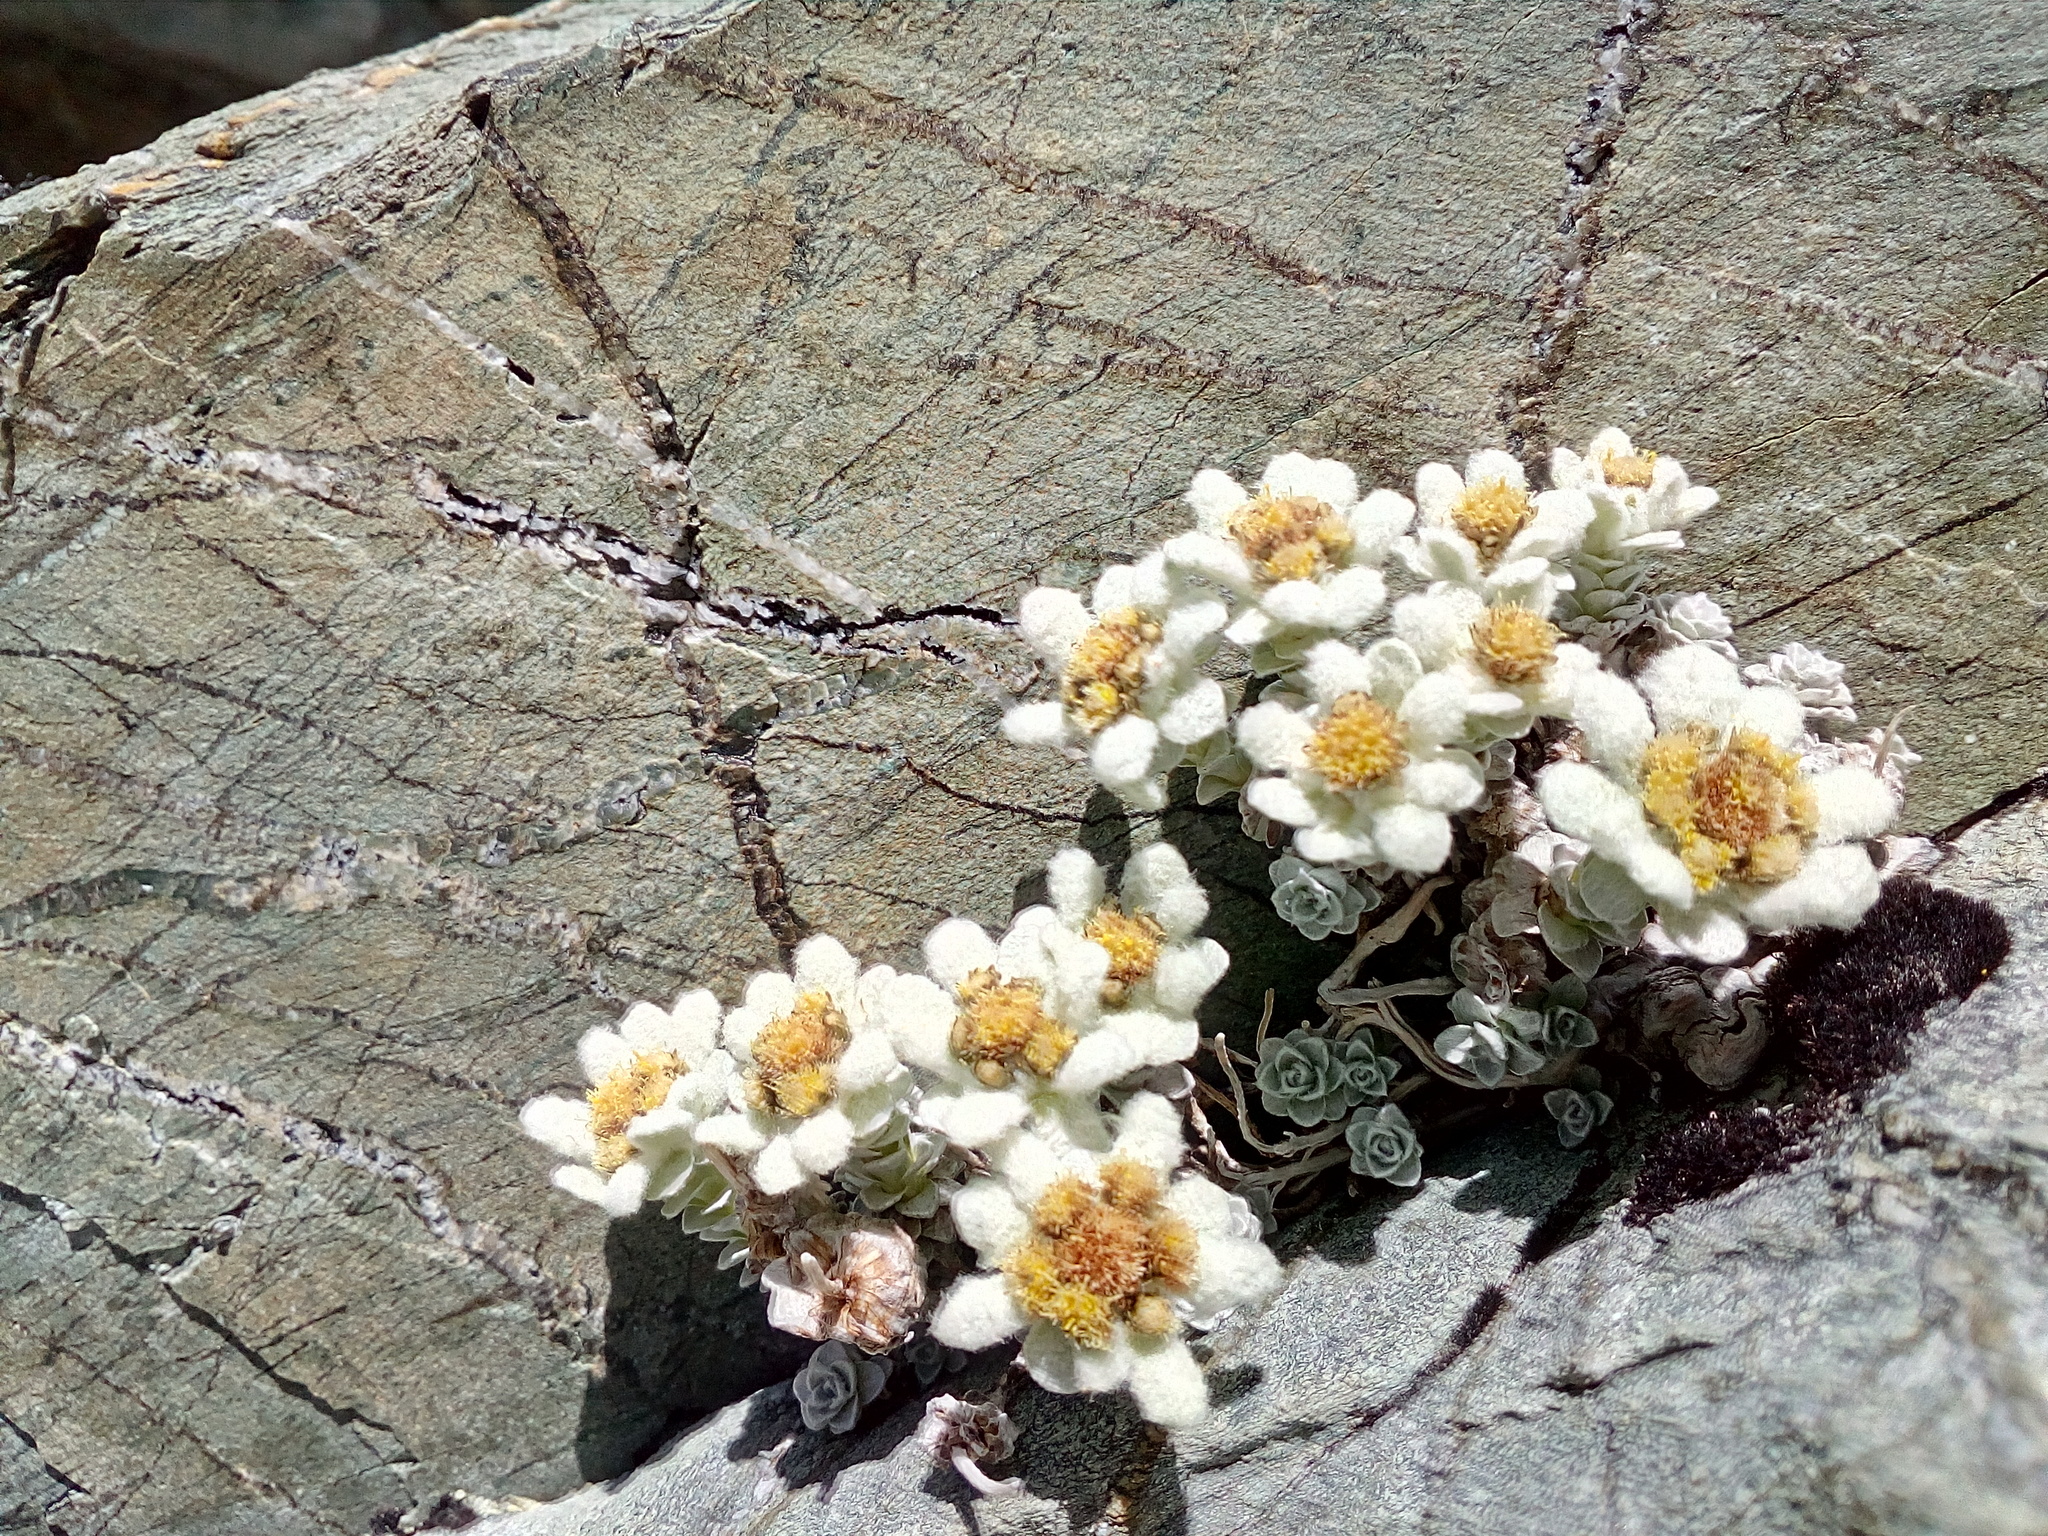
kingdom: Plantae
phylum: Tracheophyta
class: Magnoliopsida
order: Asterales
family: Asteraceae
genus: Leucogenes
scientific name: Leucogenes grandiceps
